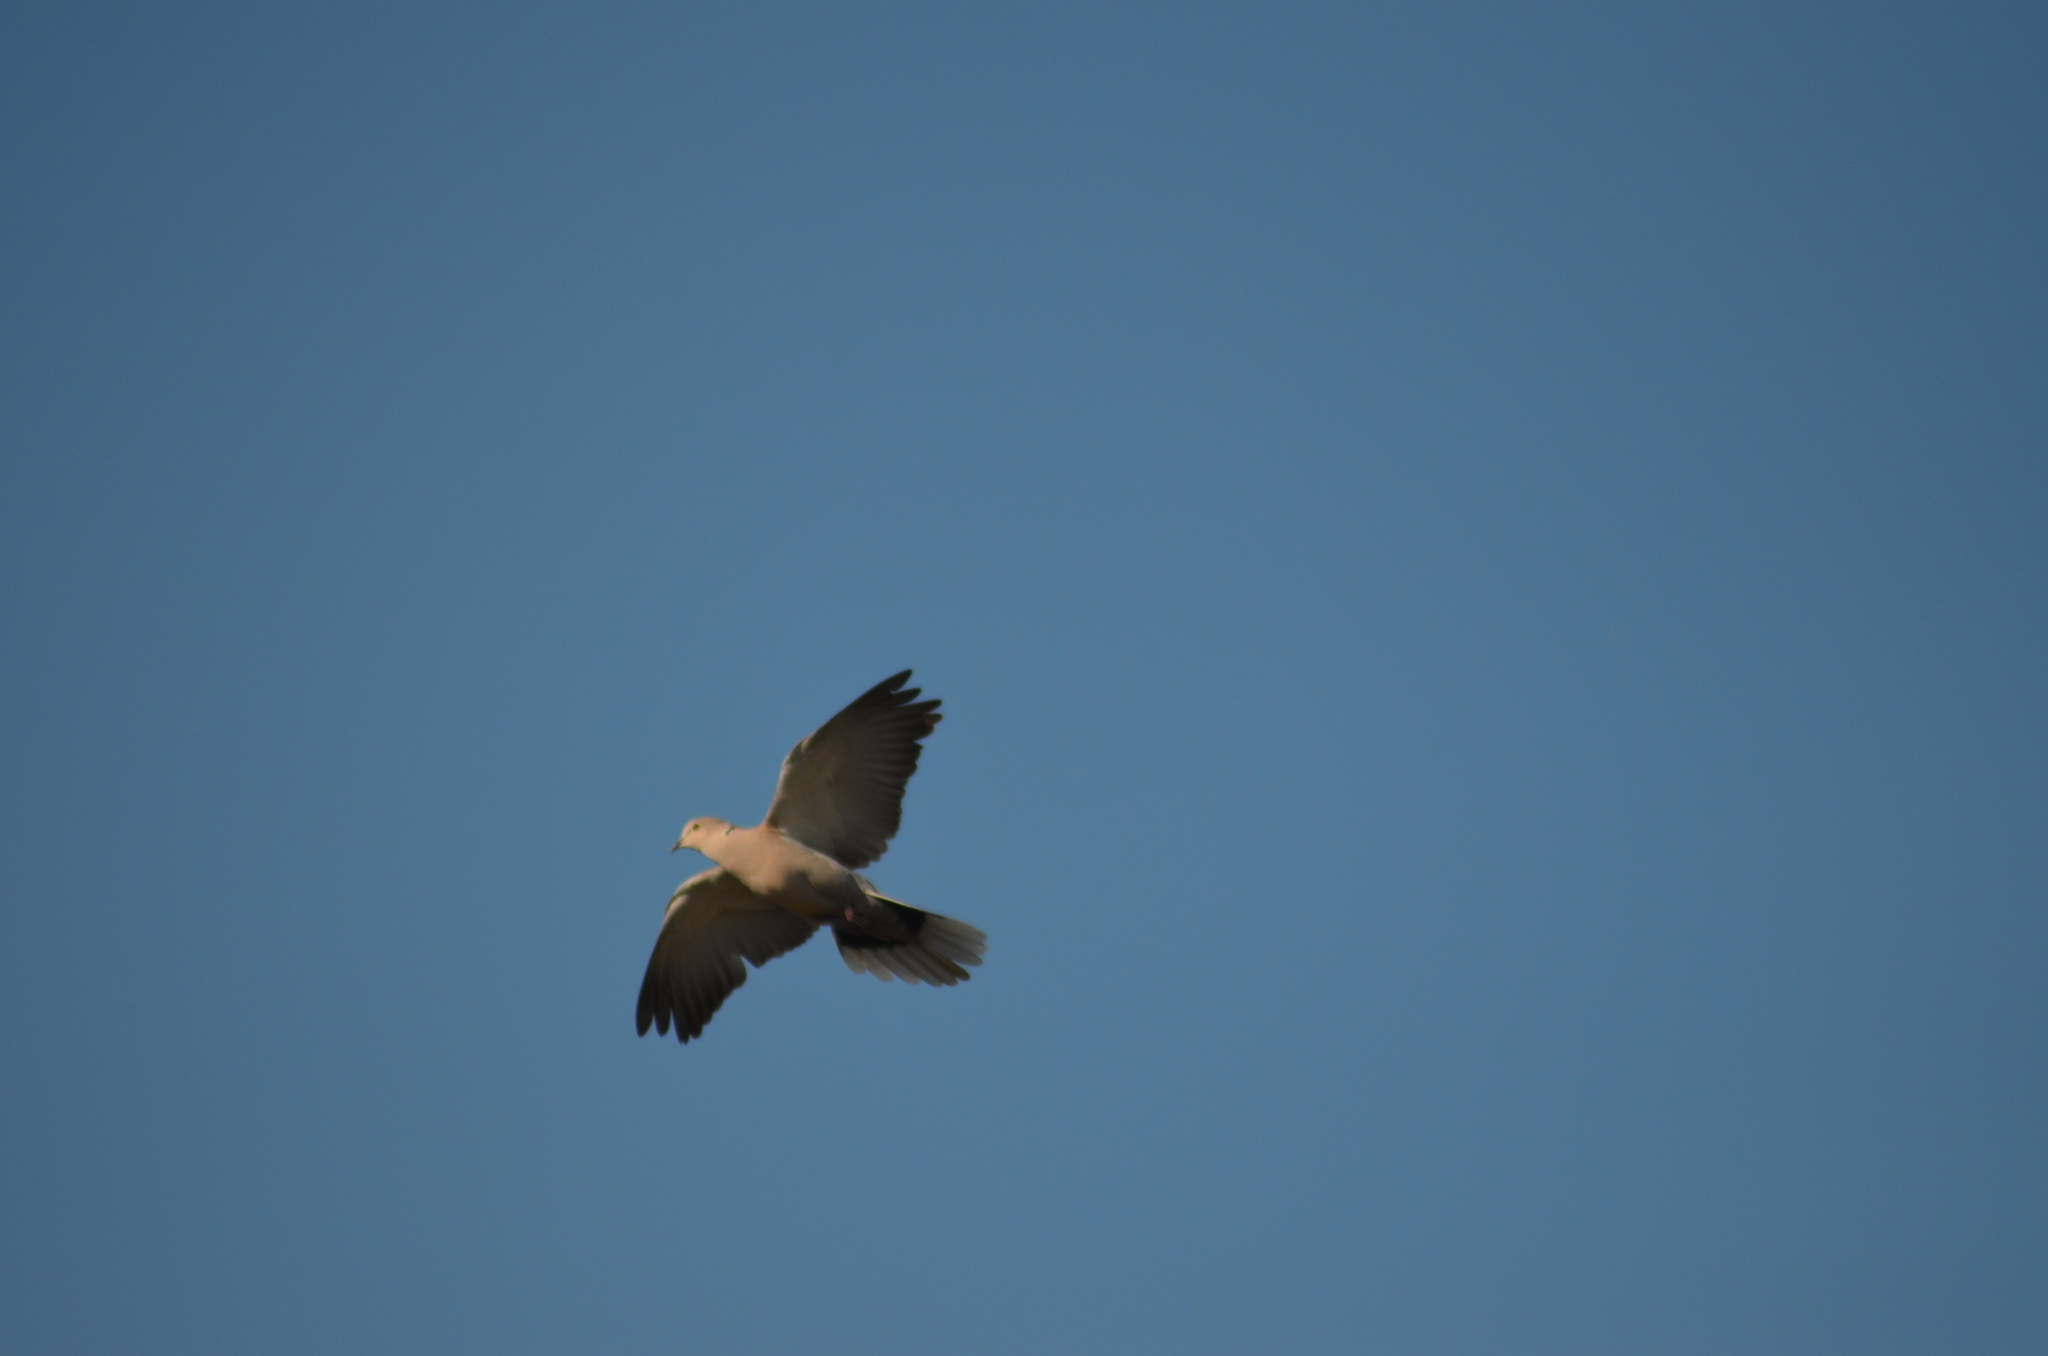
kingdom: Animalia
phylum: Chordata
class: Aves
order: Columbiformes
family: Columbidae
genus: Streptopelia
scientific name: Streptopelia decaocto
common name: Eurasian collared dove
